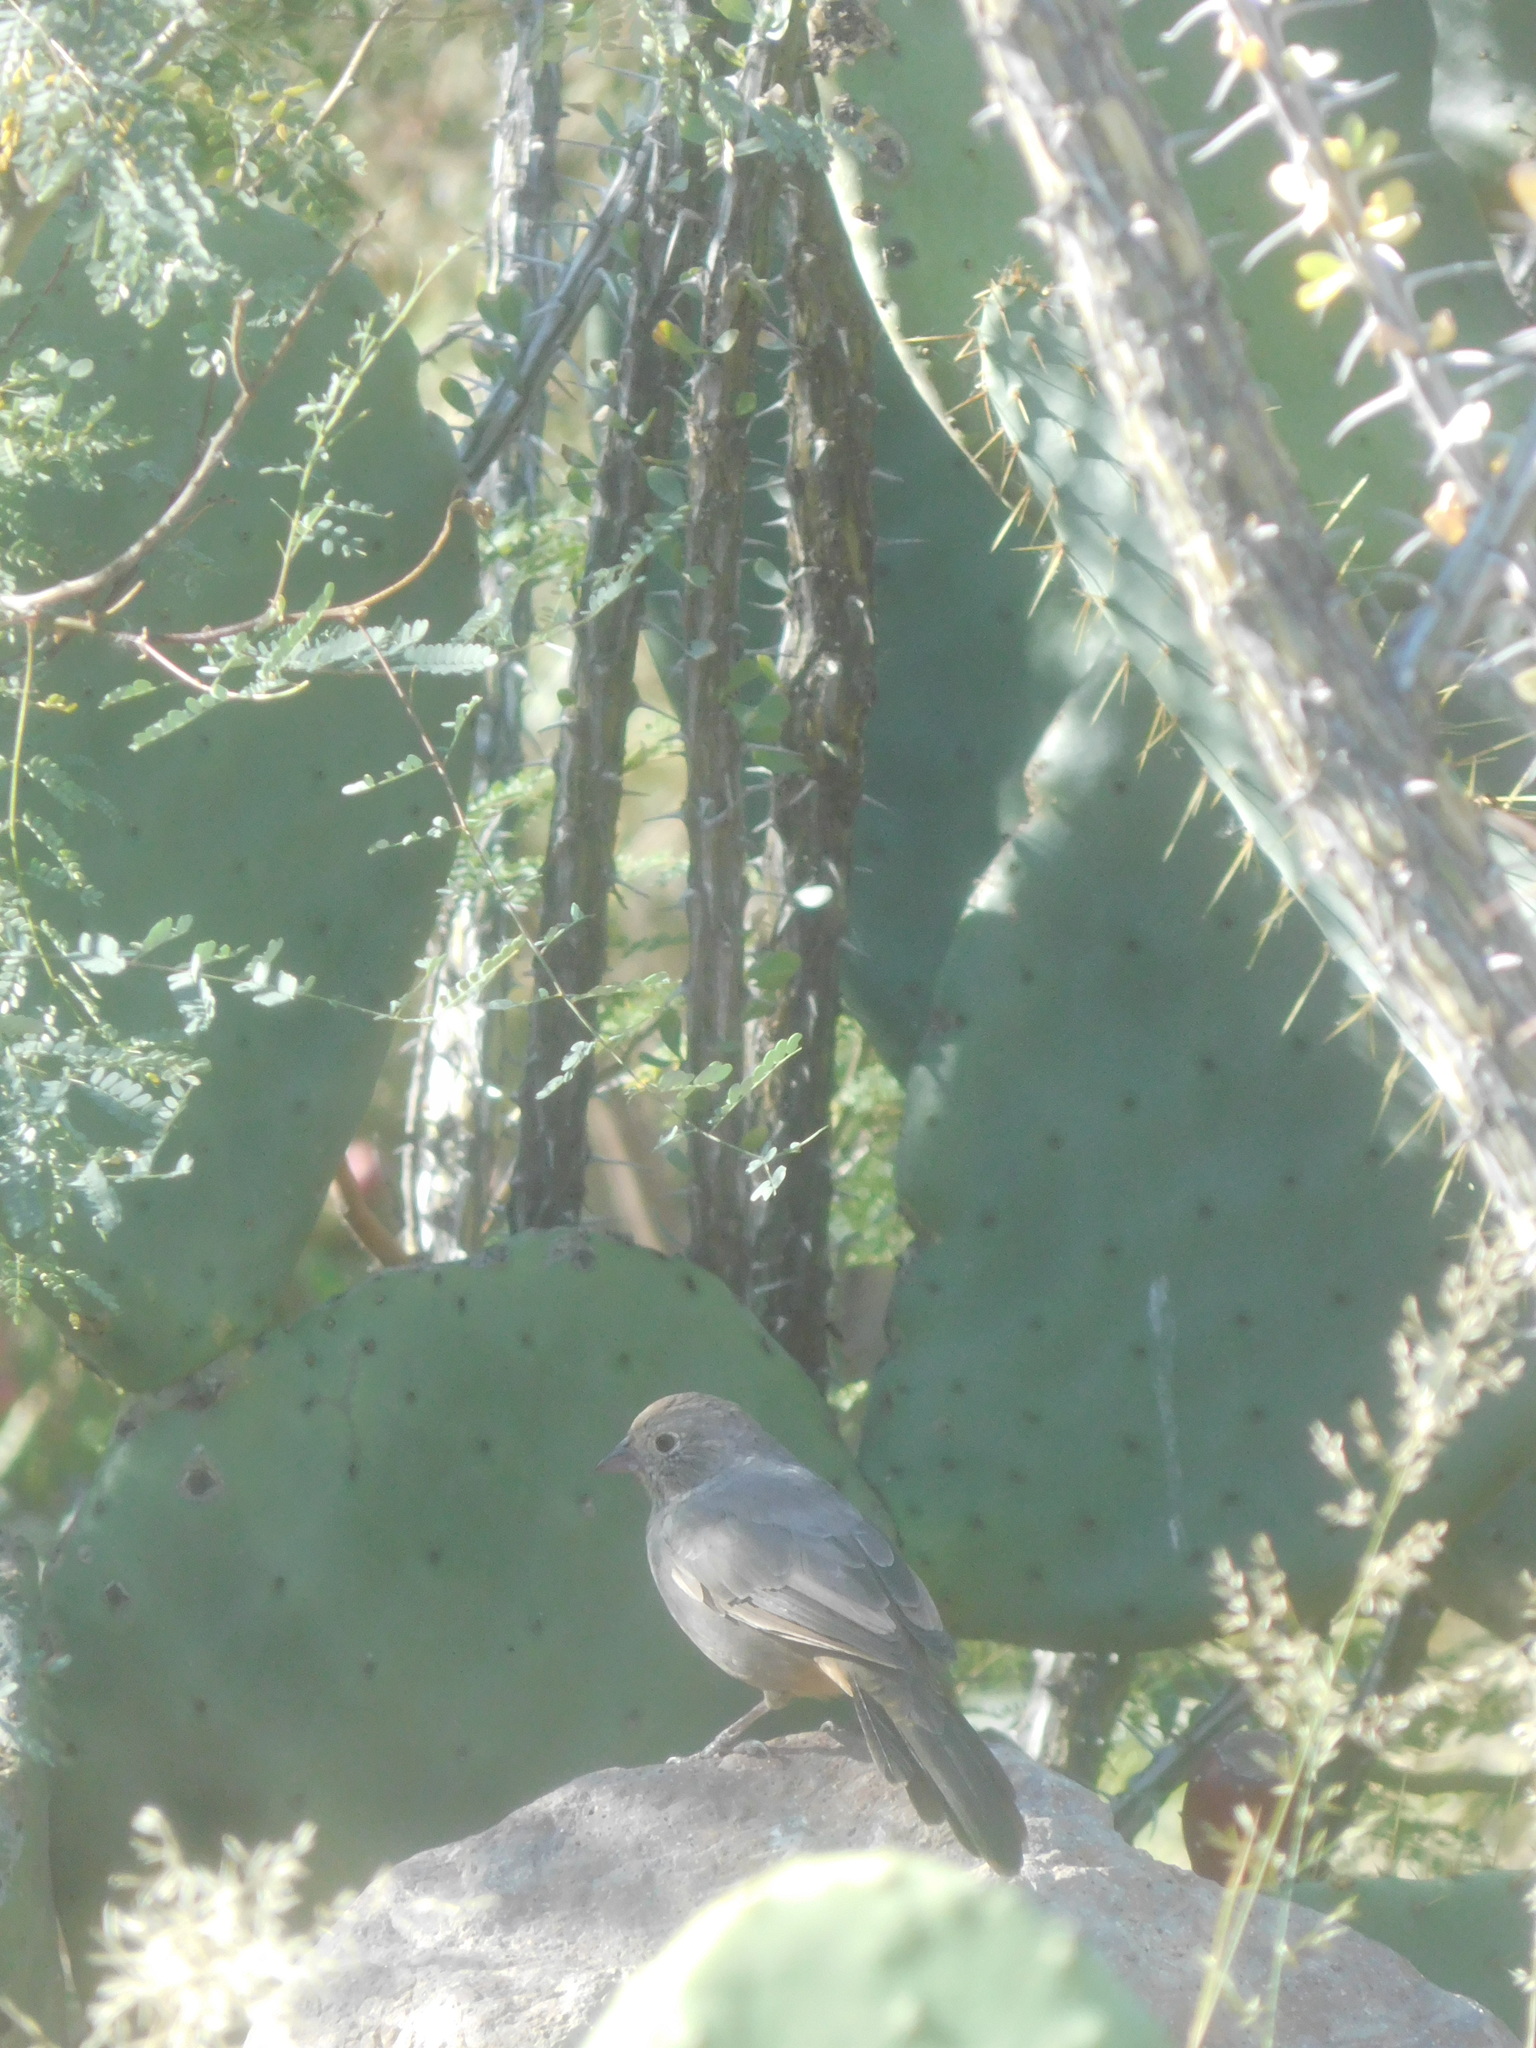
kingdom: Animalia
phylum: Chordata
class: Aves
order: Passeriformes
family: Passerellidae
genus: Melozone
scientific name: Melozone fusca
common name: Canyon towhee
